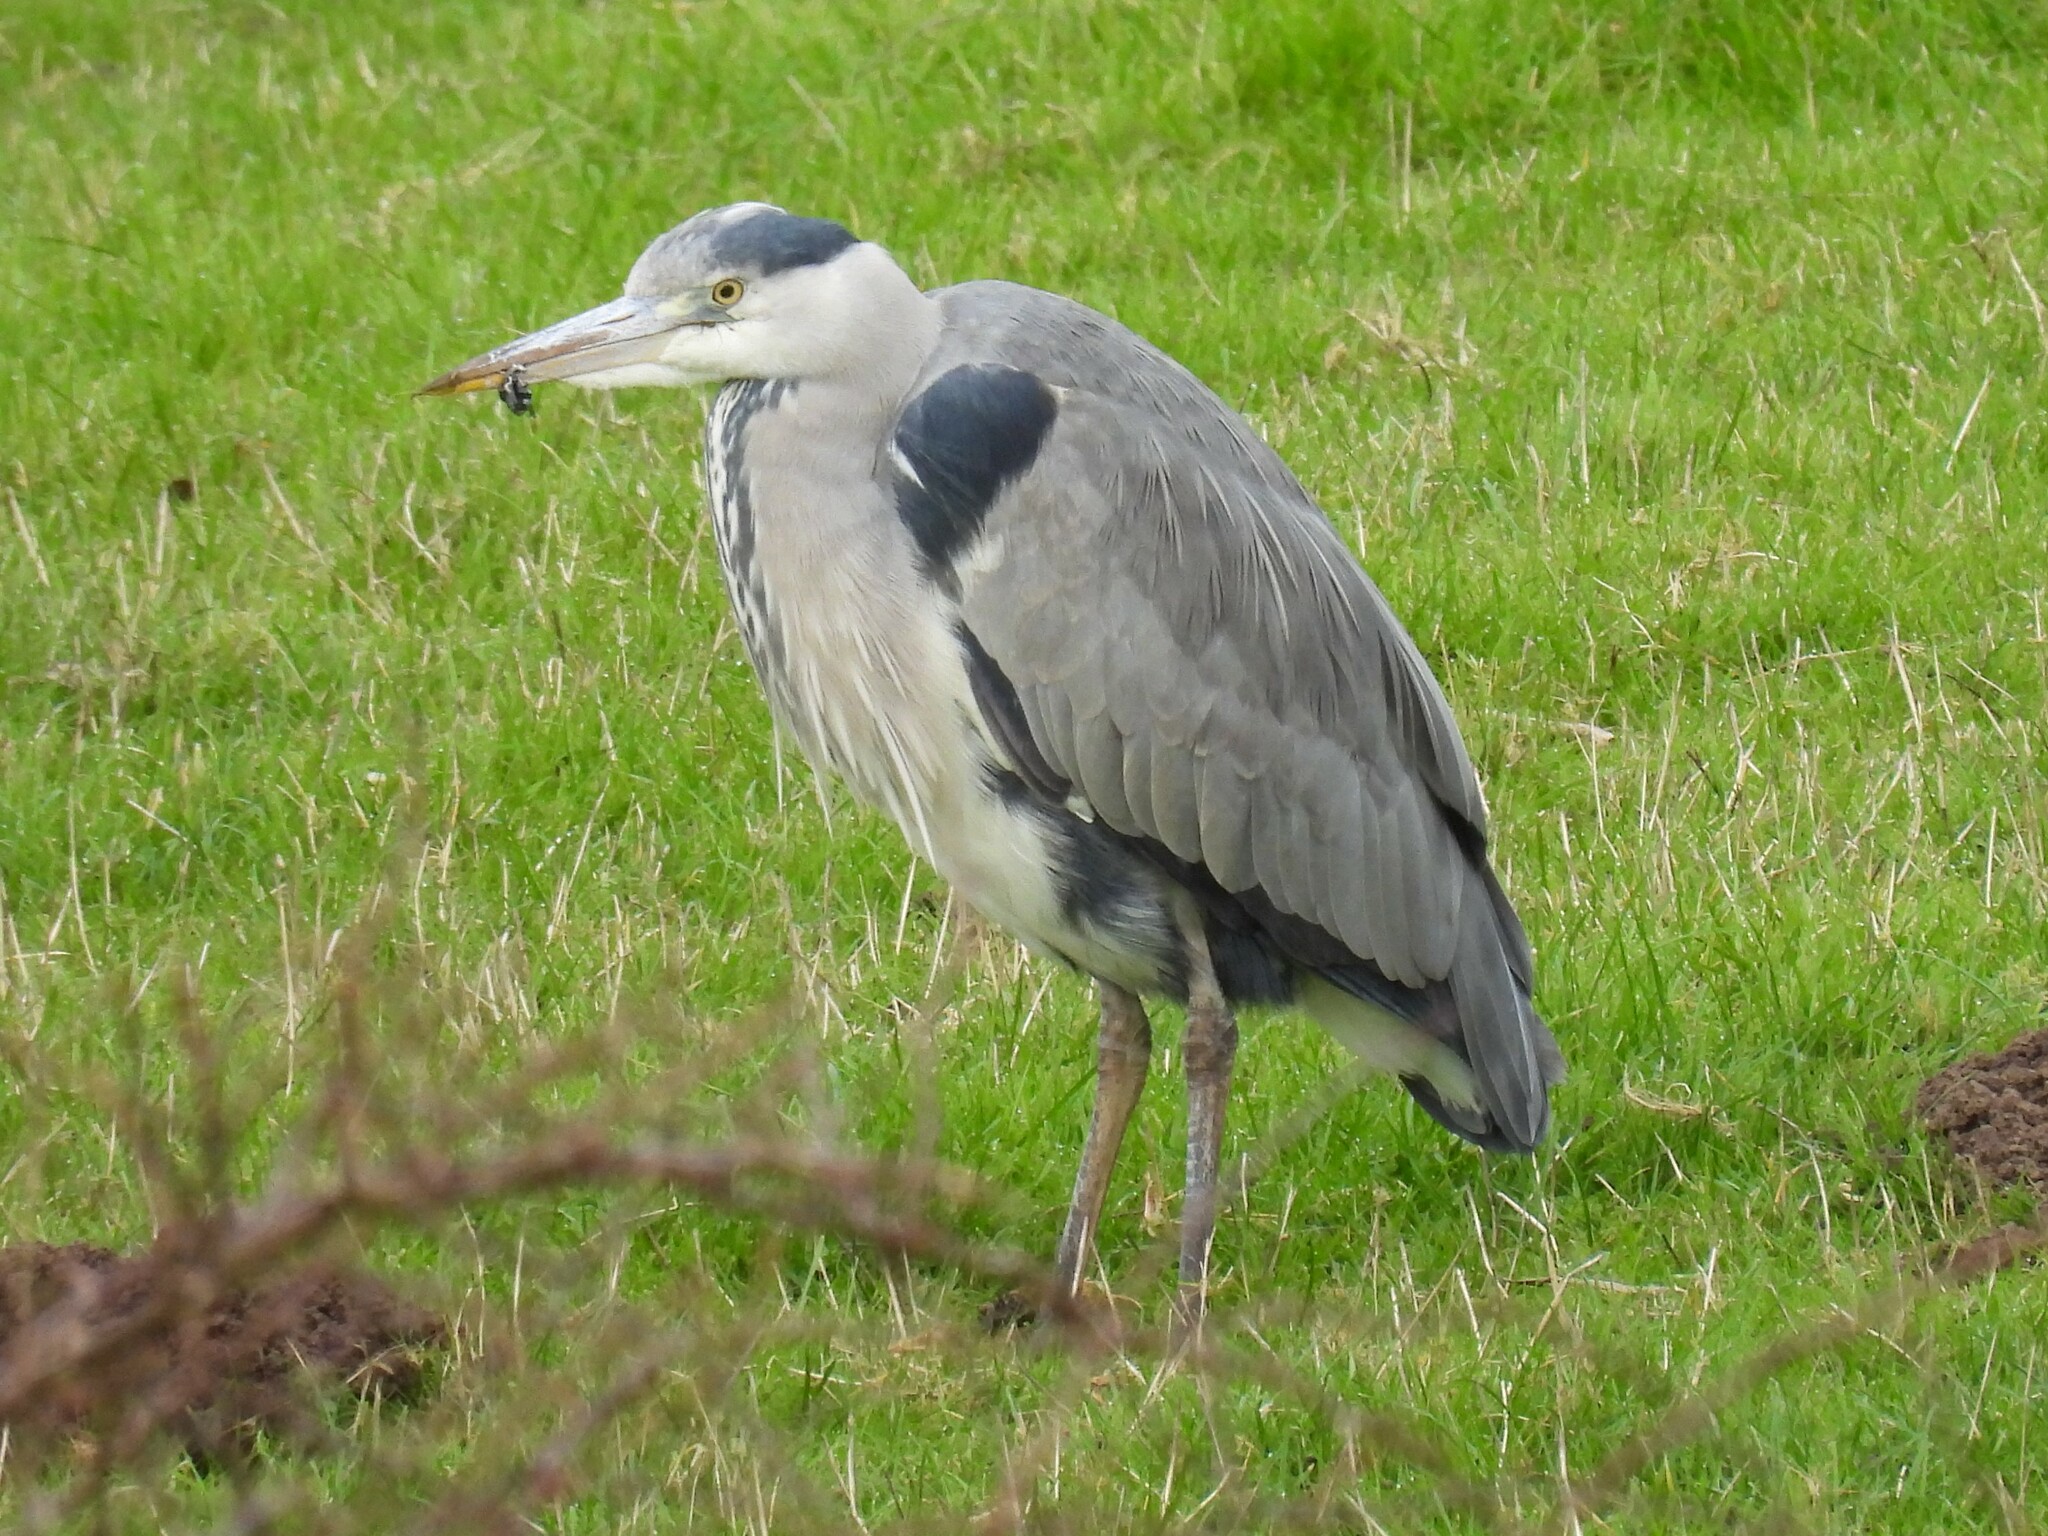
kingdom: Animalia
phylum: Chordata
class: Aves
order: Pelecaniformes
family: Ardeidae
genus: Ardea
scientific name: Ardea cinerea
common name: Grey heron
